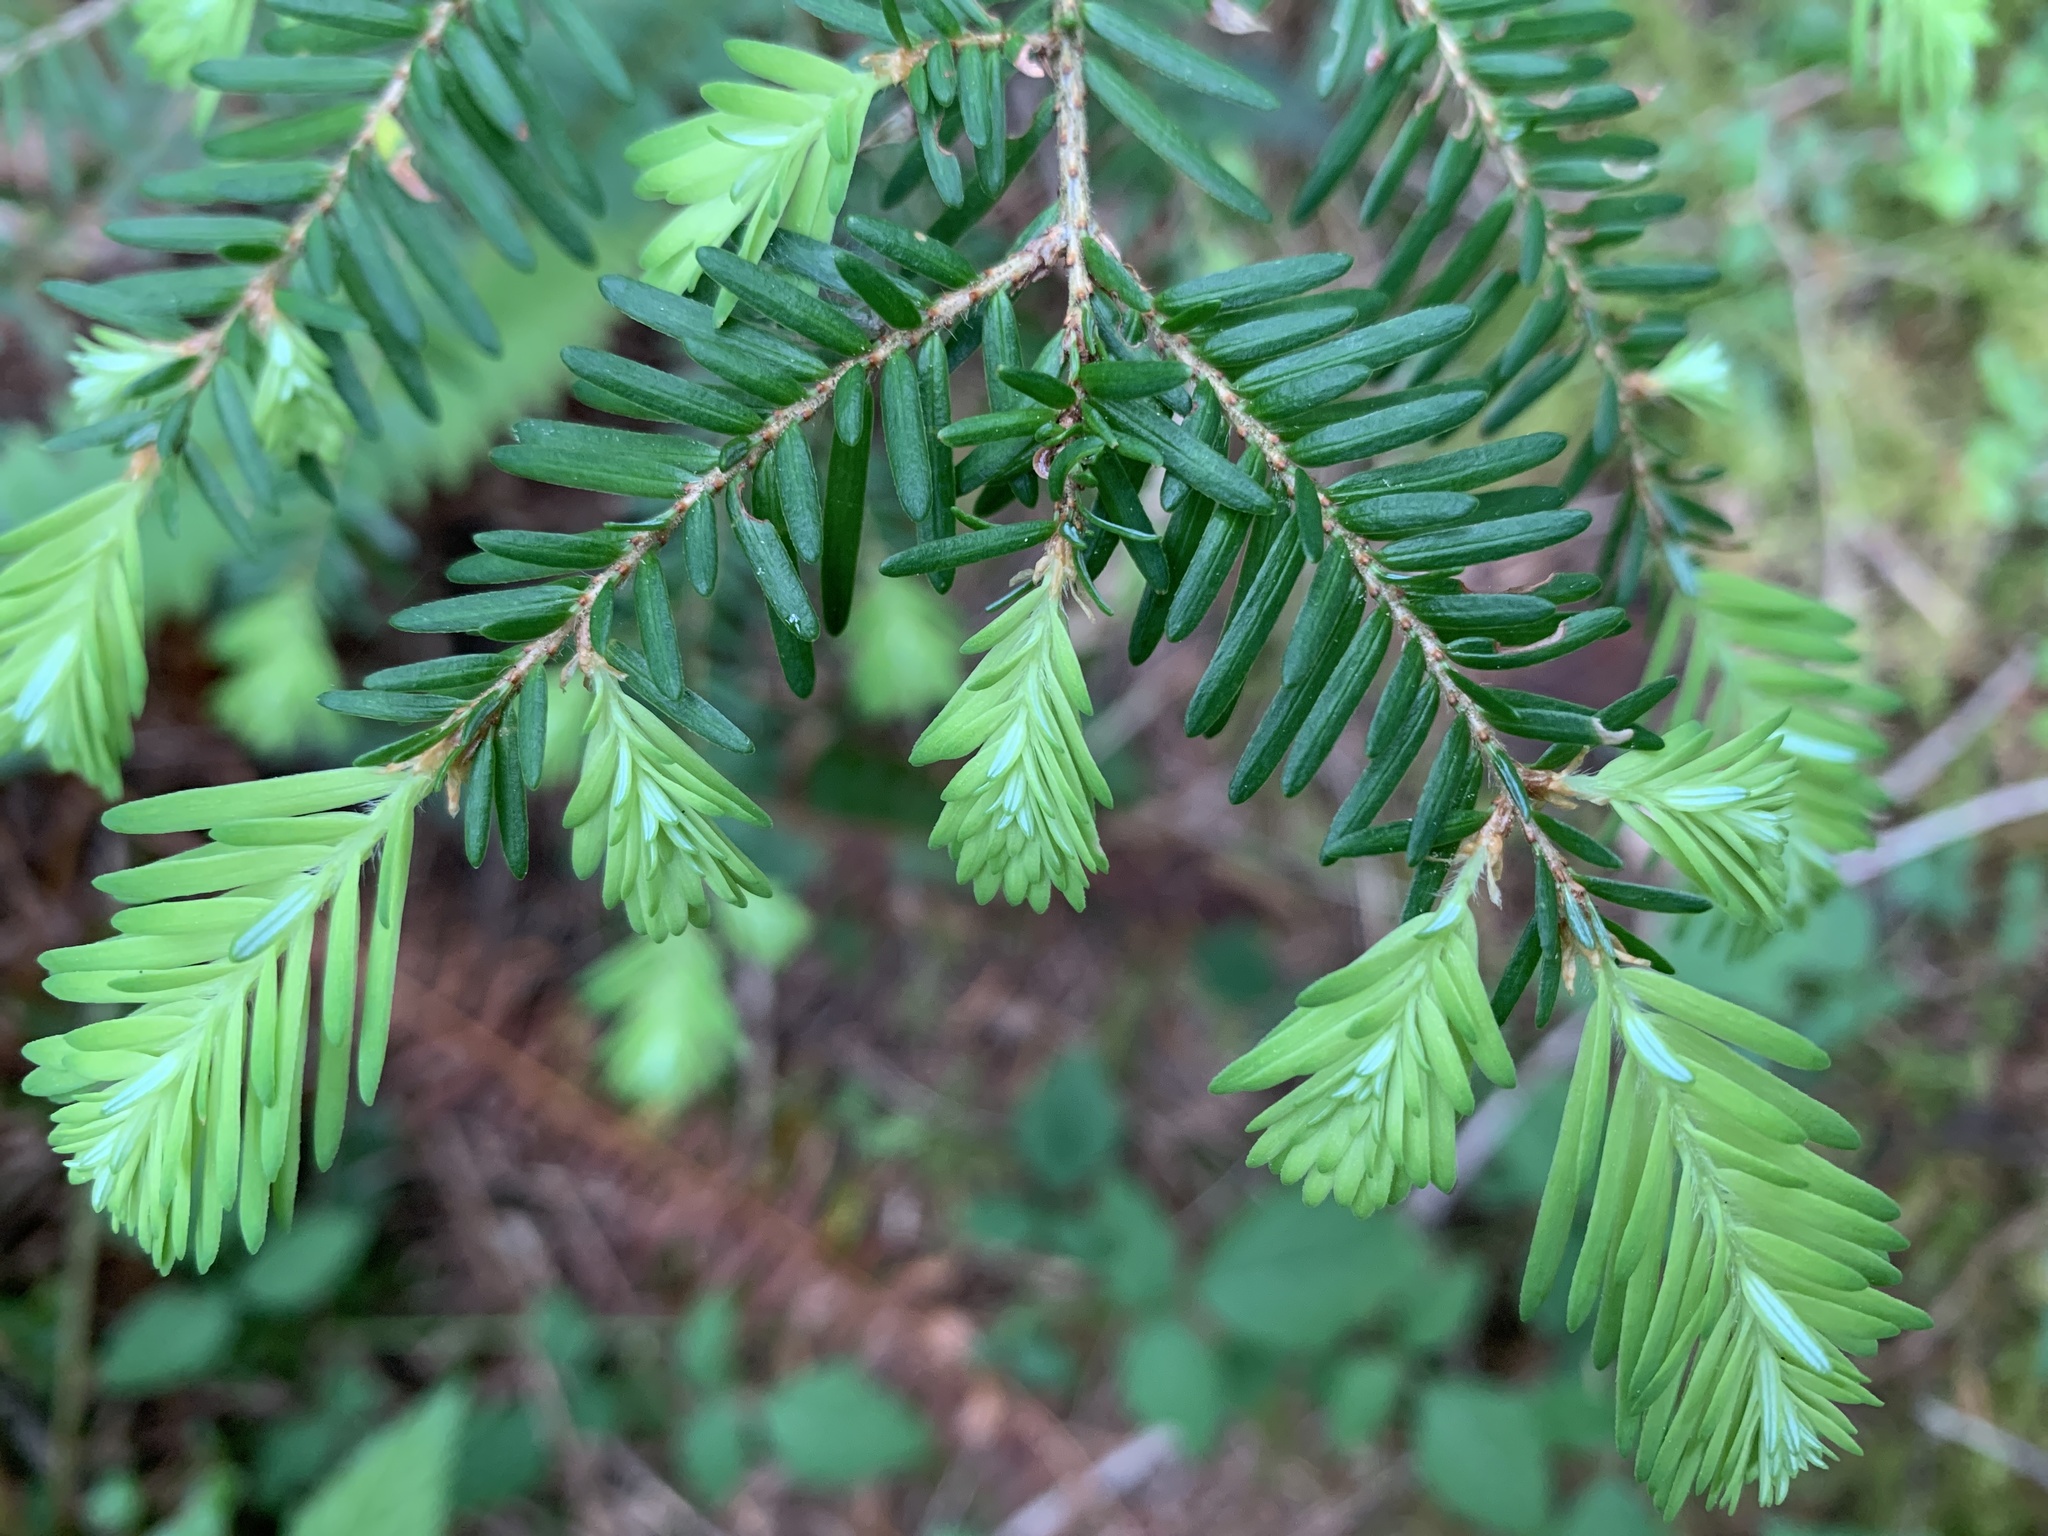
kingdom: Plantae
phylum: Tracheophyta
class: Pinopsida
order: Pinales
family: Pinaceae
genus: Tsuga
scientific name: Tsuga heterophylla
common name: Western hemlock
